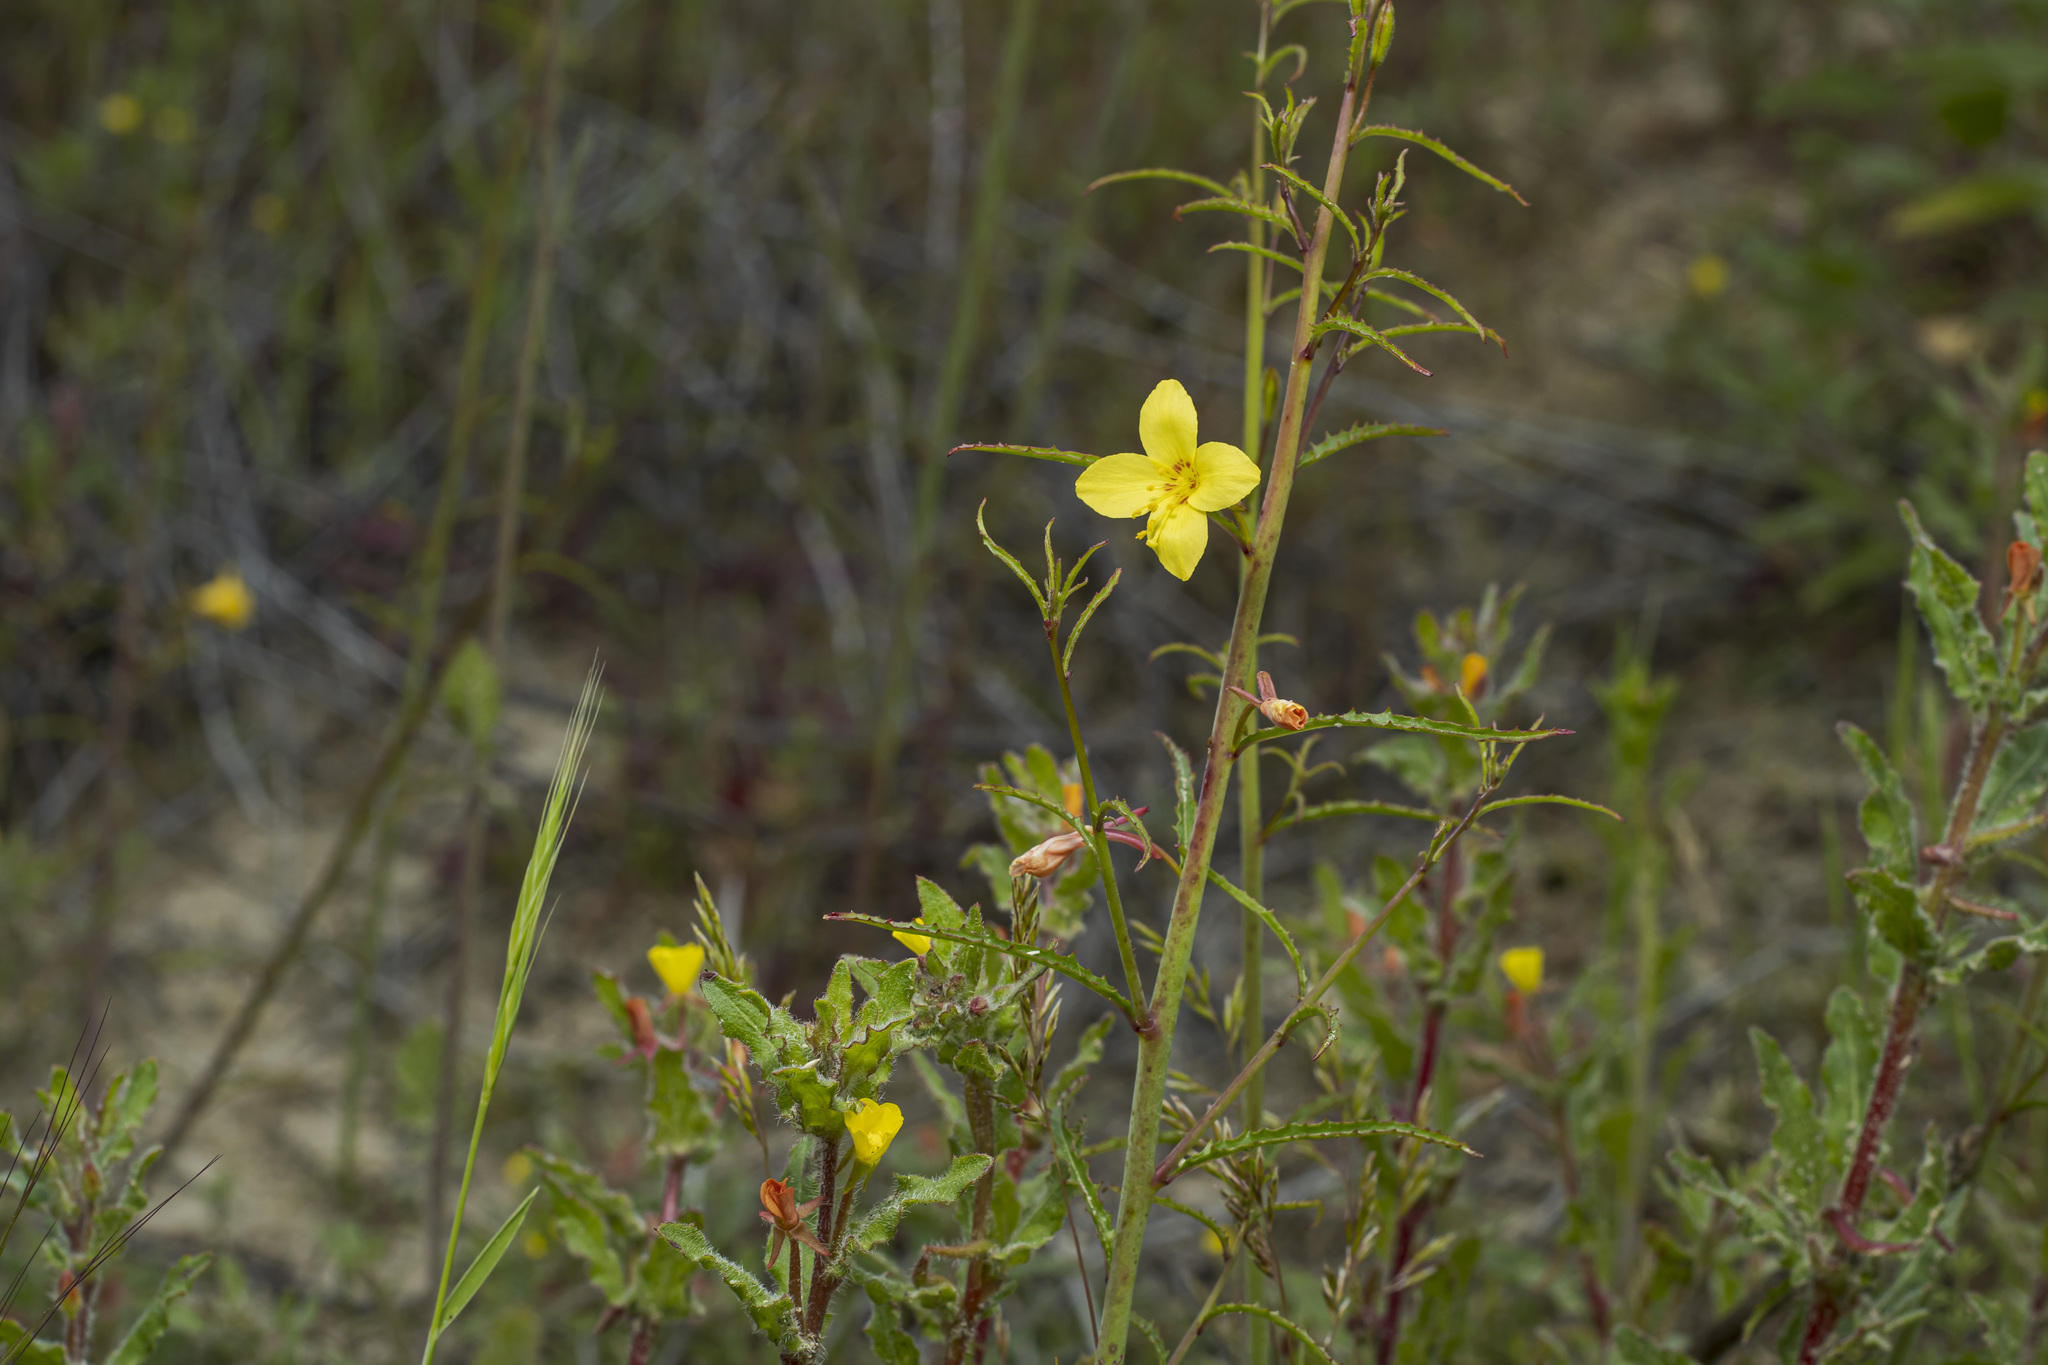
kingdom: Plantae
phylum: Tracheophyta
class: Magnoliopsida
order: Myrtales
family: Onagraceae
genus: Eulobus
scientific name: Eulobus californicus
